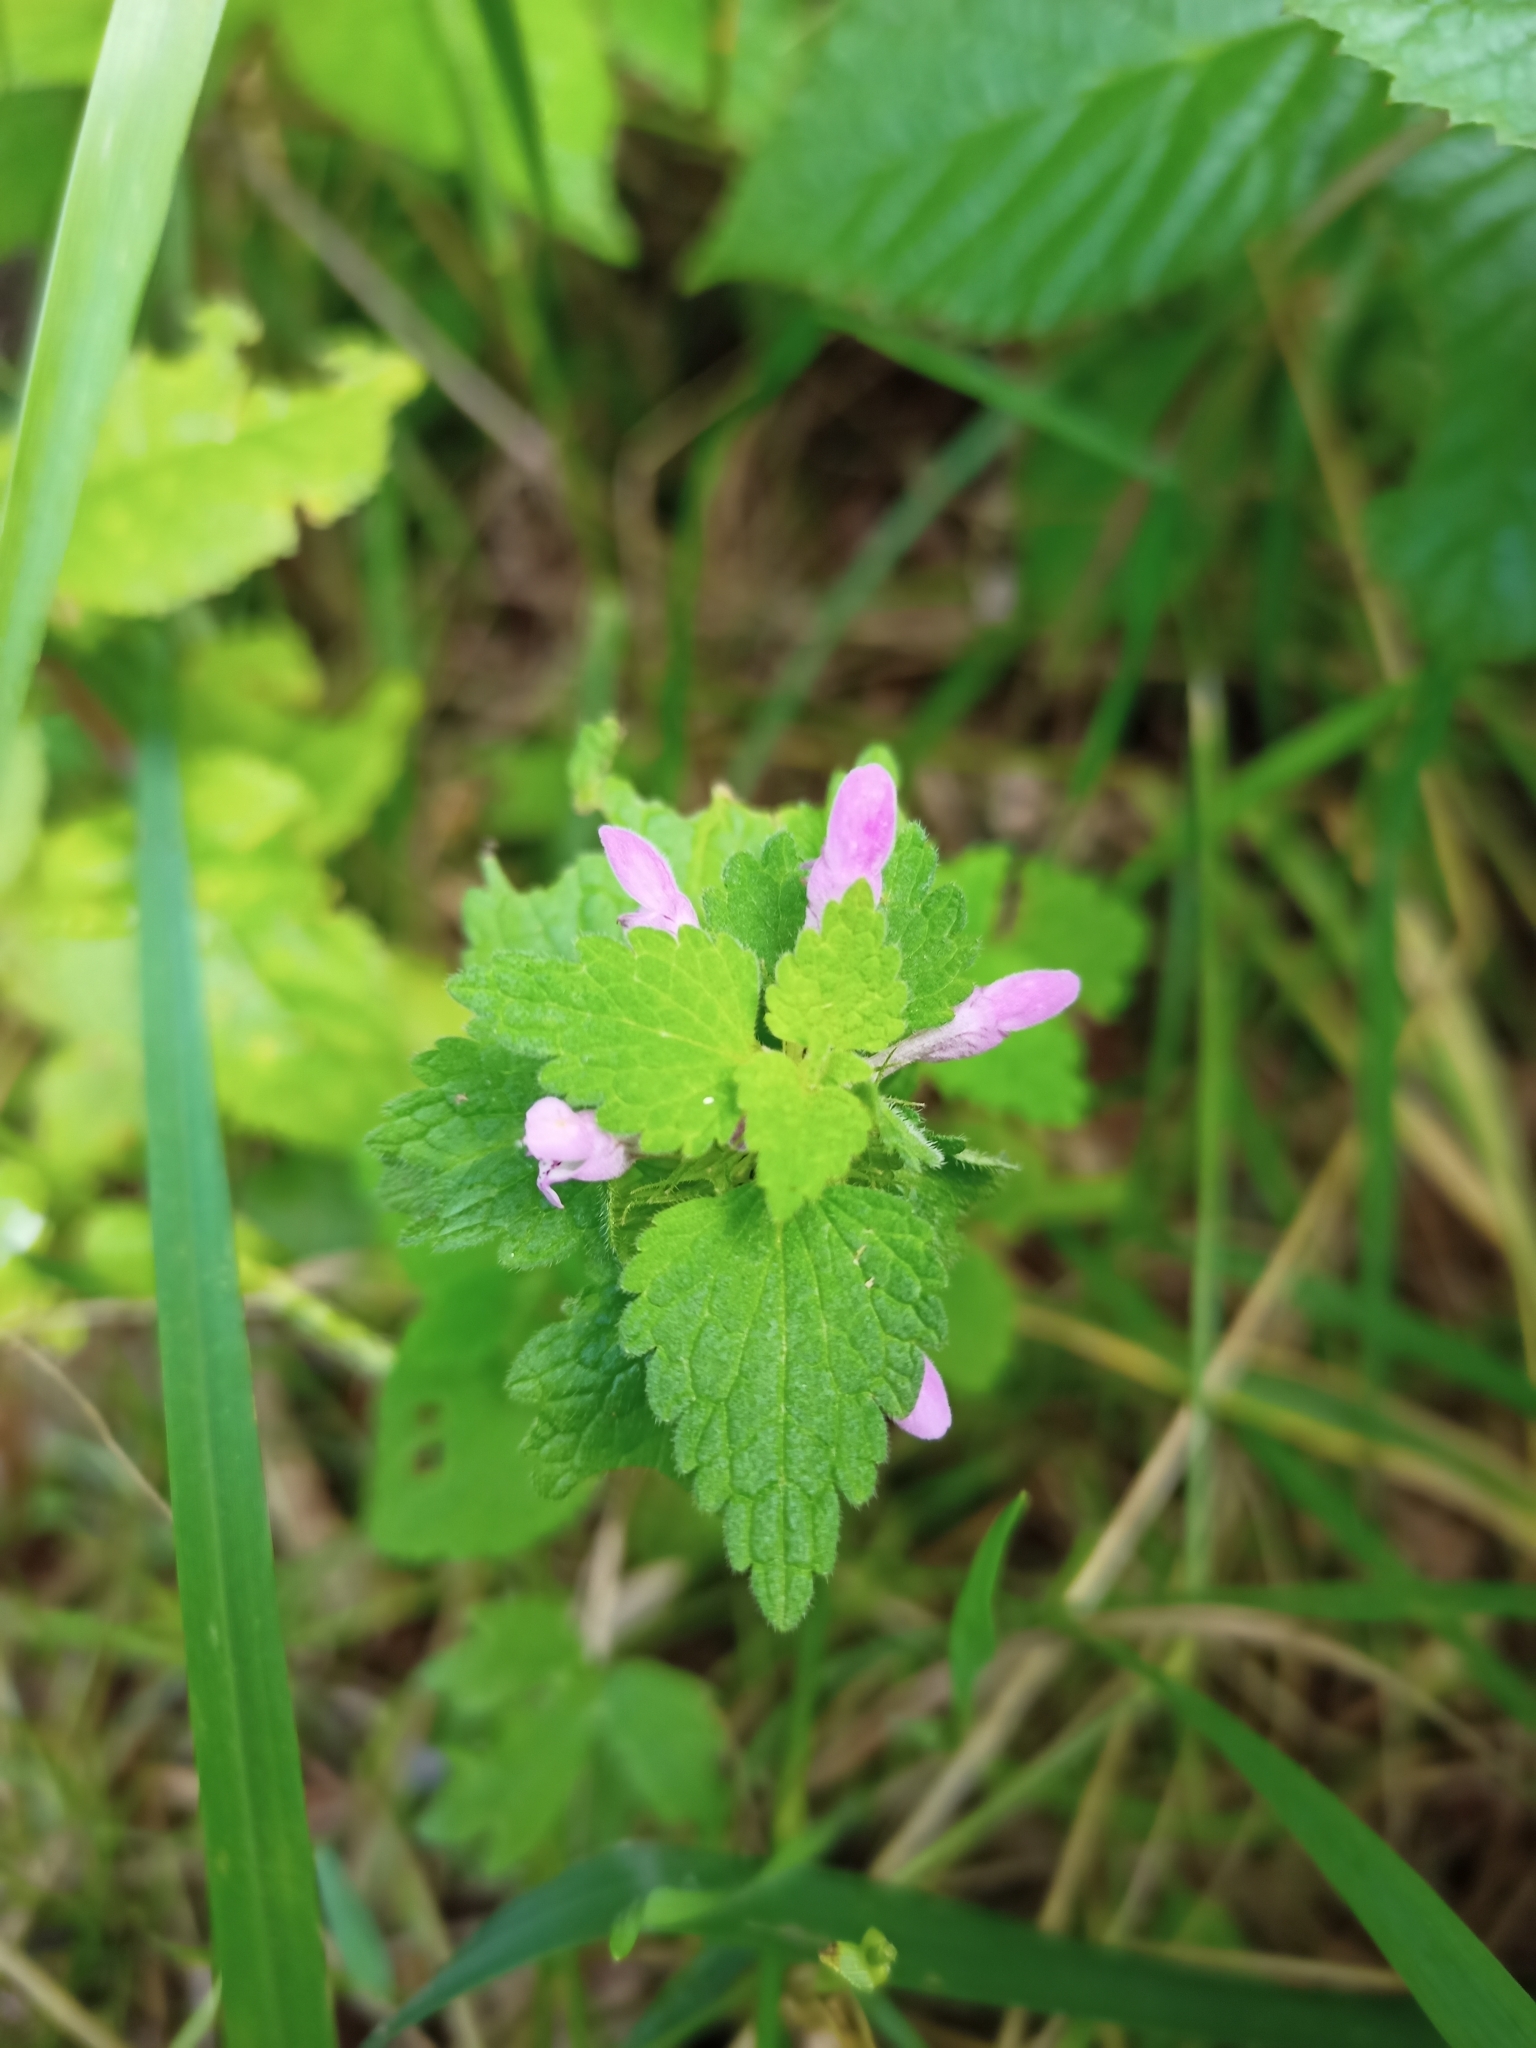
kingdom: Plantae
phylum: Tracheophyta
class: Magnoliopsida
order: Lamiales
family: Lamiaceae
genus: Lamium
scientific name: Lamium purpureum
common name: Red dead-nettle
